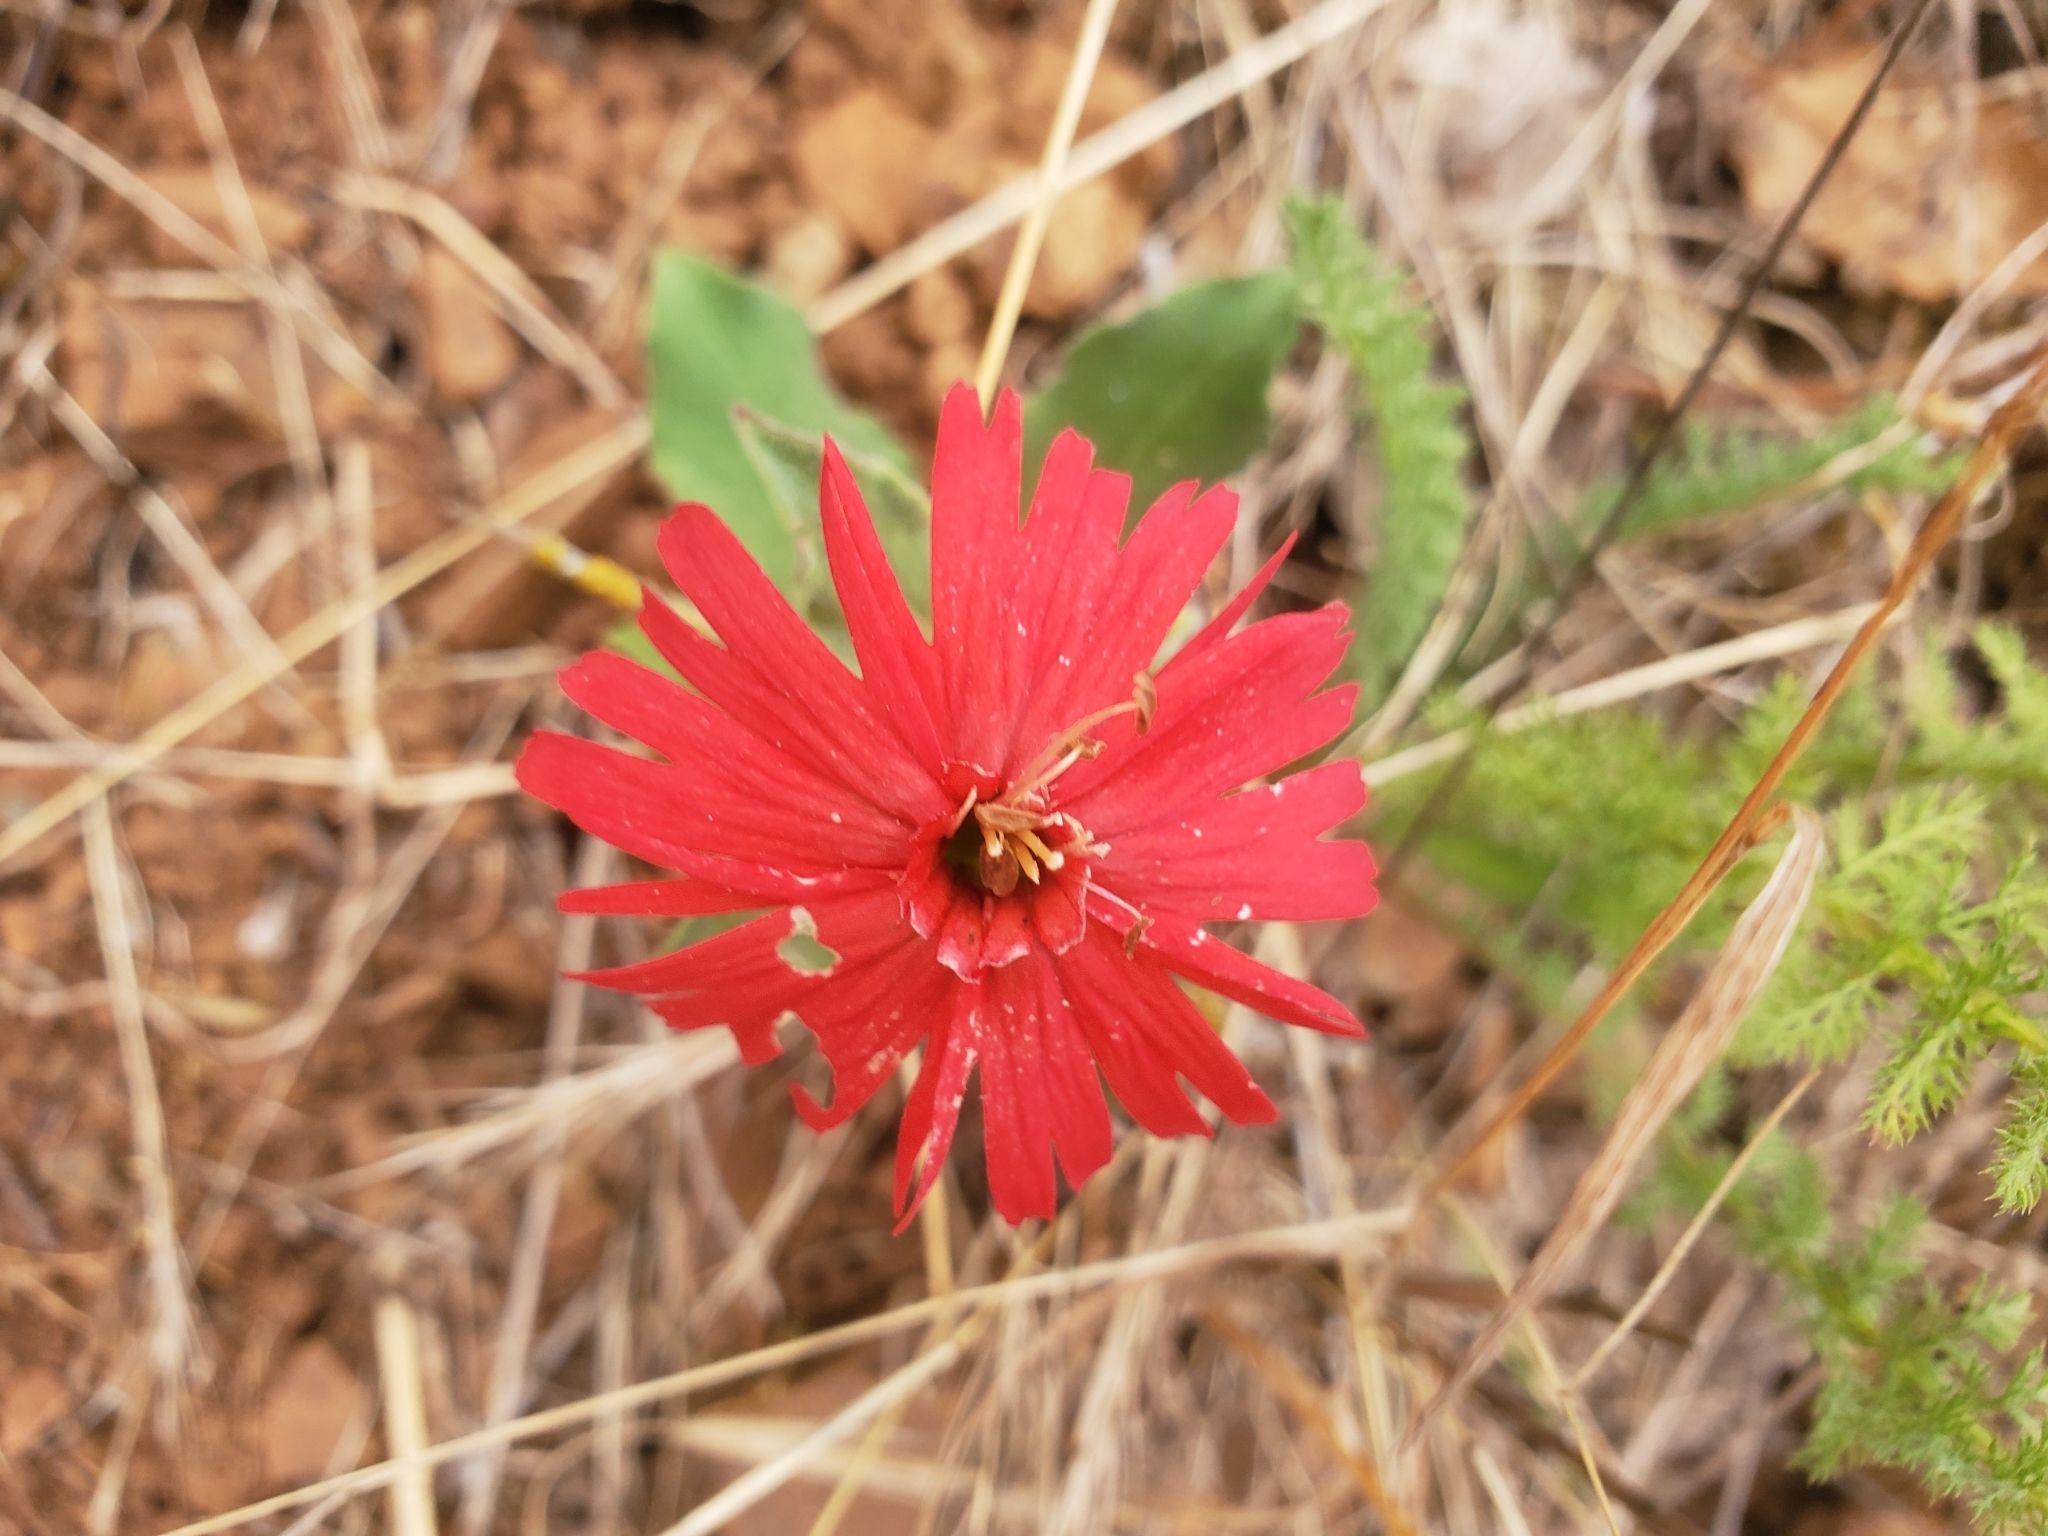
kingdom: Plantae
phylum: Tracheophyta
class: Magnoliopsida
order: Caryophyllales
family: Caryophyllaceae
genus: Silene
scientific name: Silene laciniata
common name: Indian-pink
